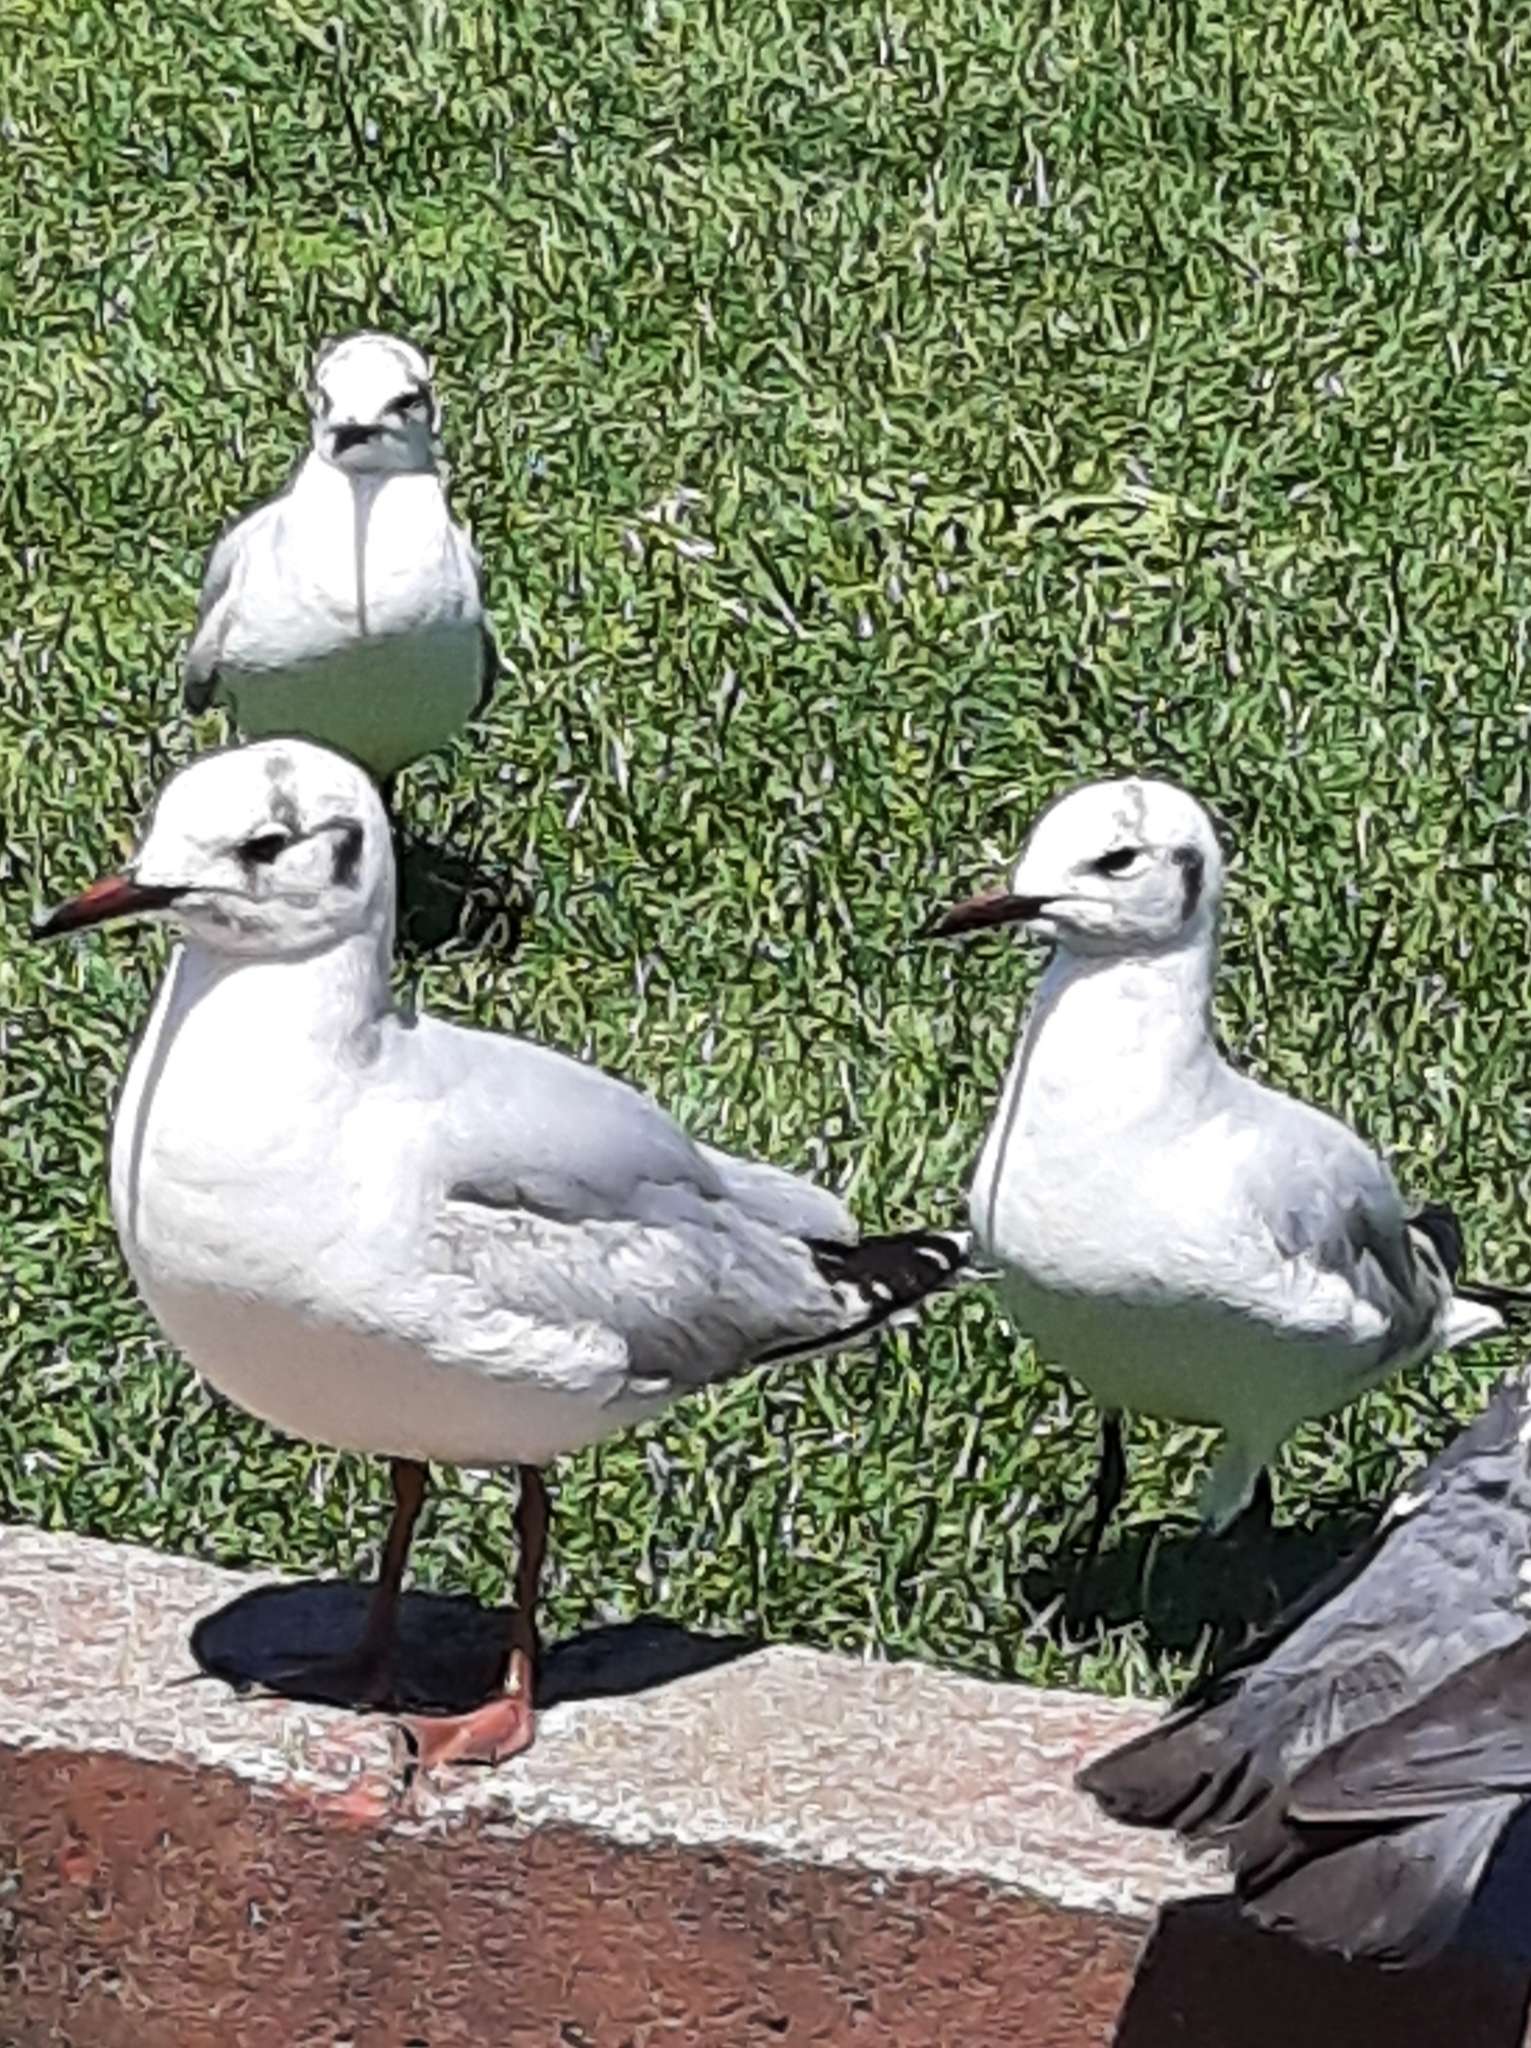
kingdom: Animalia
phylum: Chordata
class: Aves
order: Charadriiformes
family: Laridae
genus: Chroicocephalus
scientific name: Chroicocephalus maculipennis
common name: Brown-hooded gull
